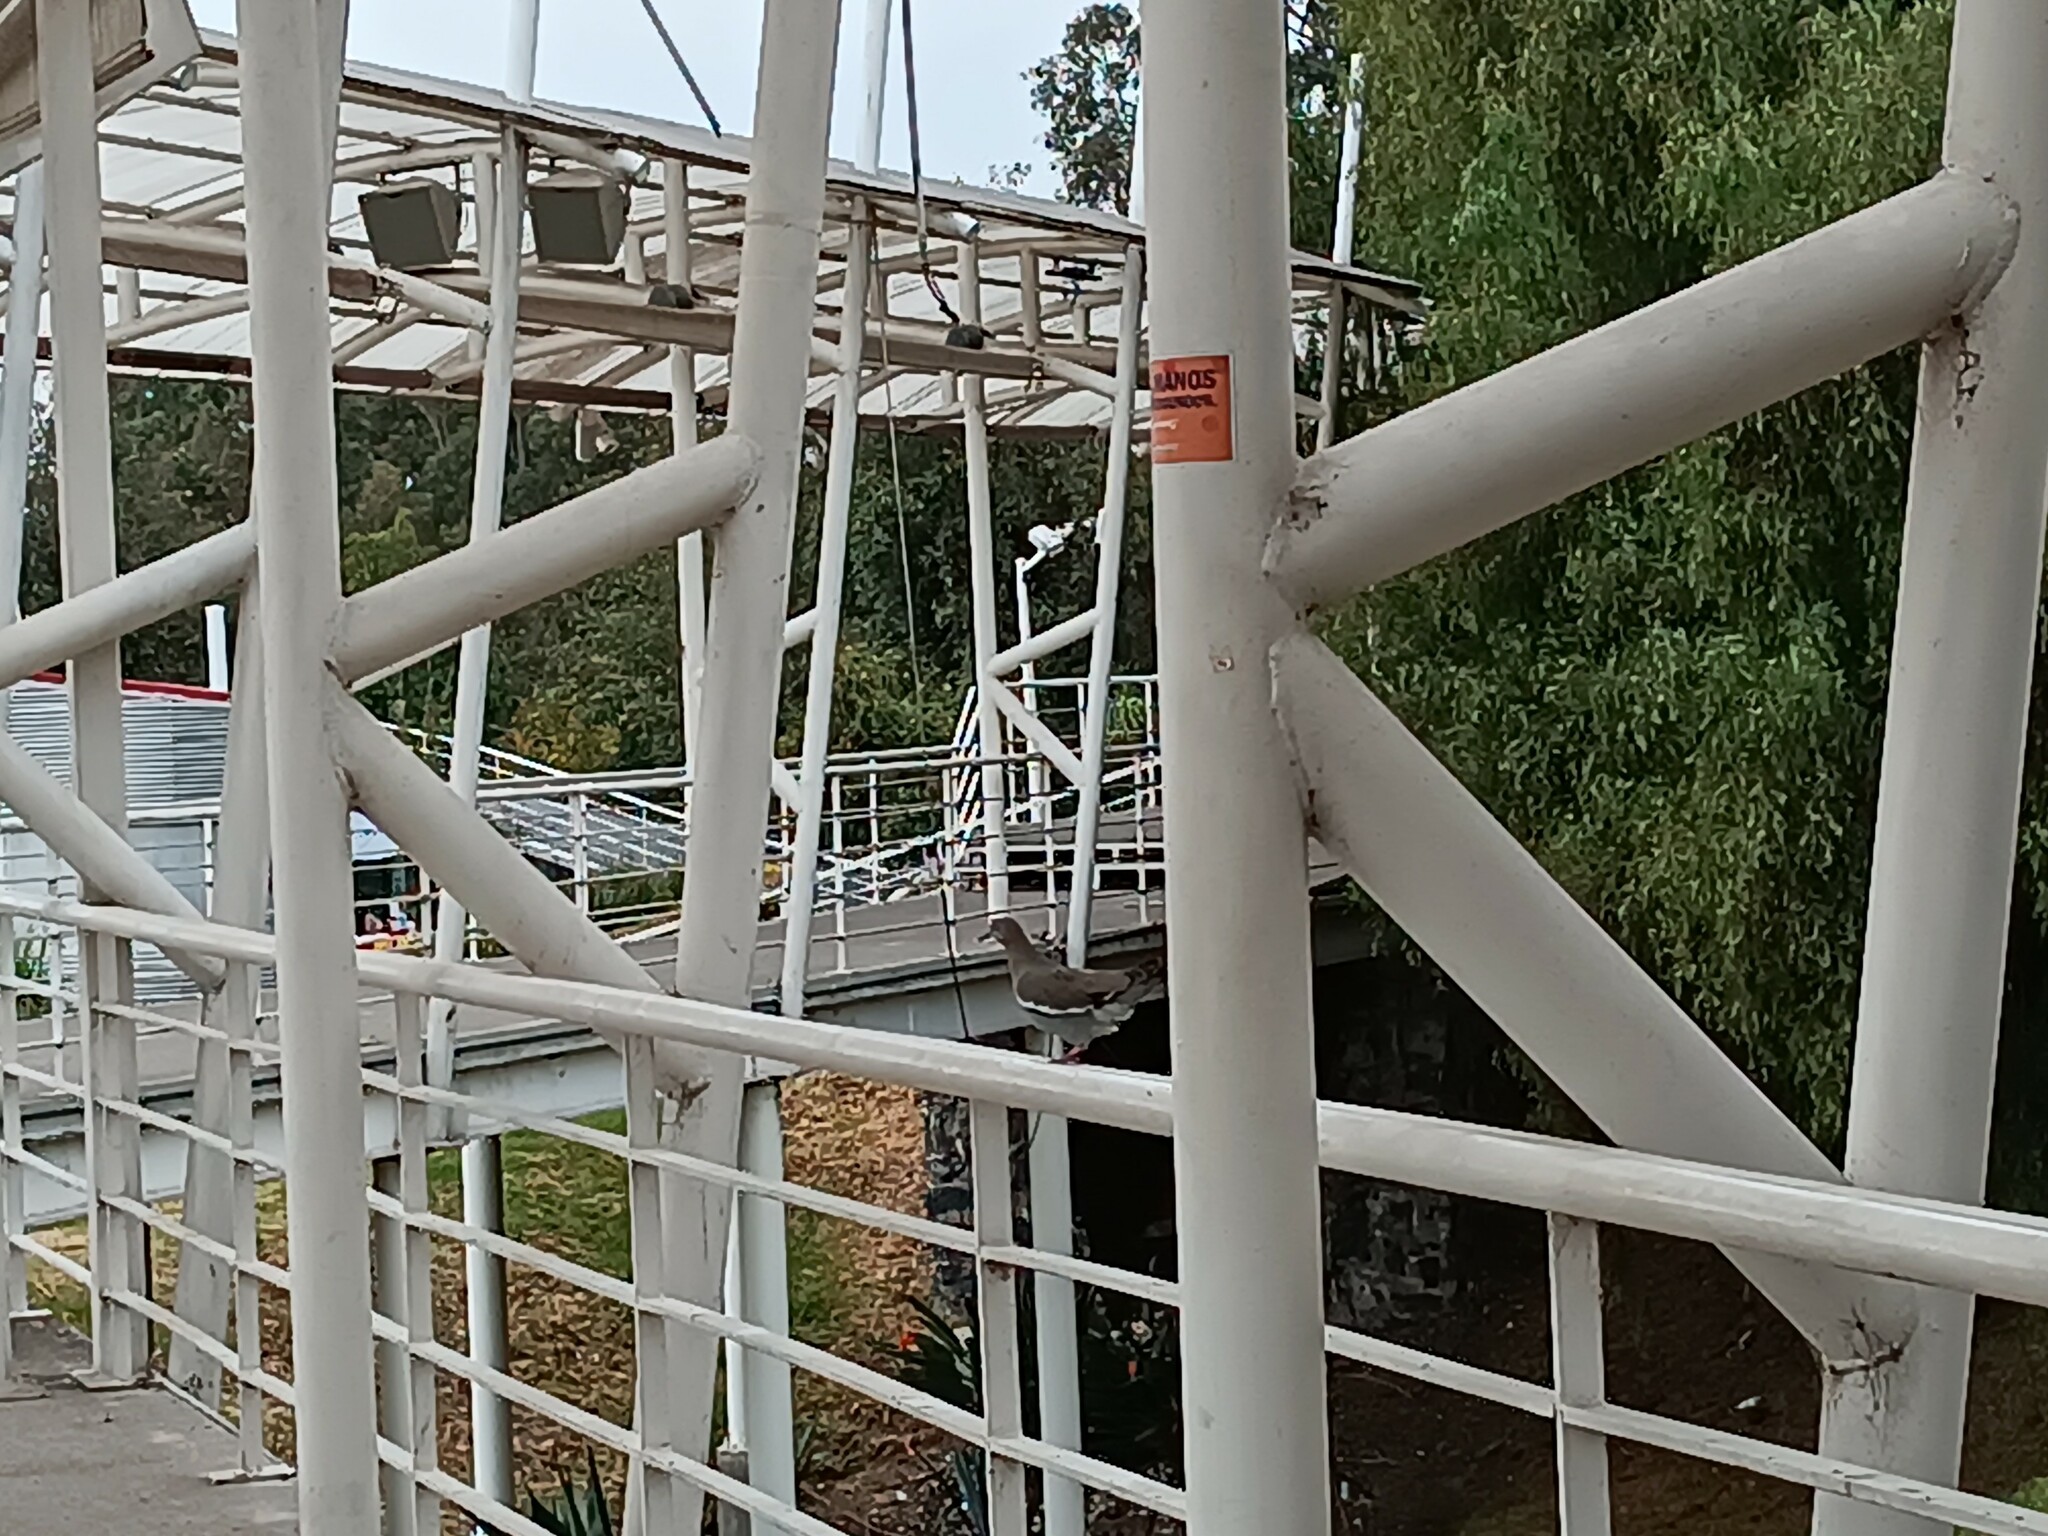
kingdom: Animalia
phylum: Chordata
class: Aves
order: Columbiformes
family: Columbidae
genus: Zenaida
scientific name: Zenaida asiatica
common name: White-winged dove
